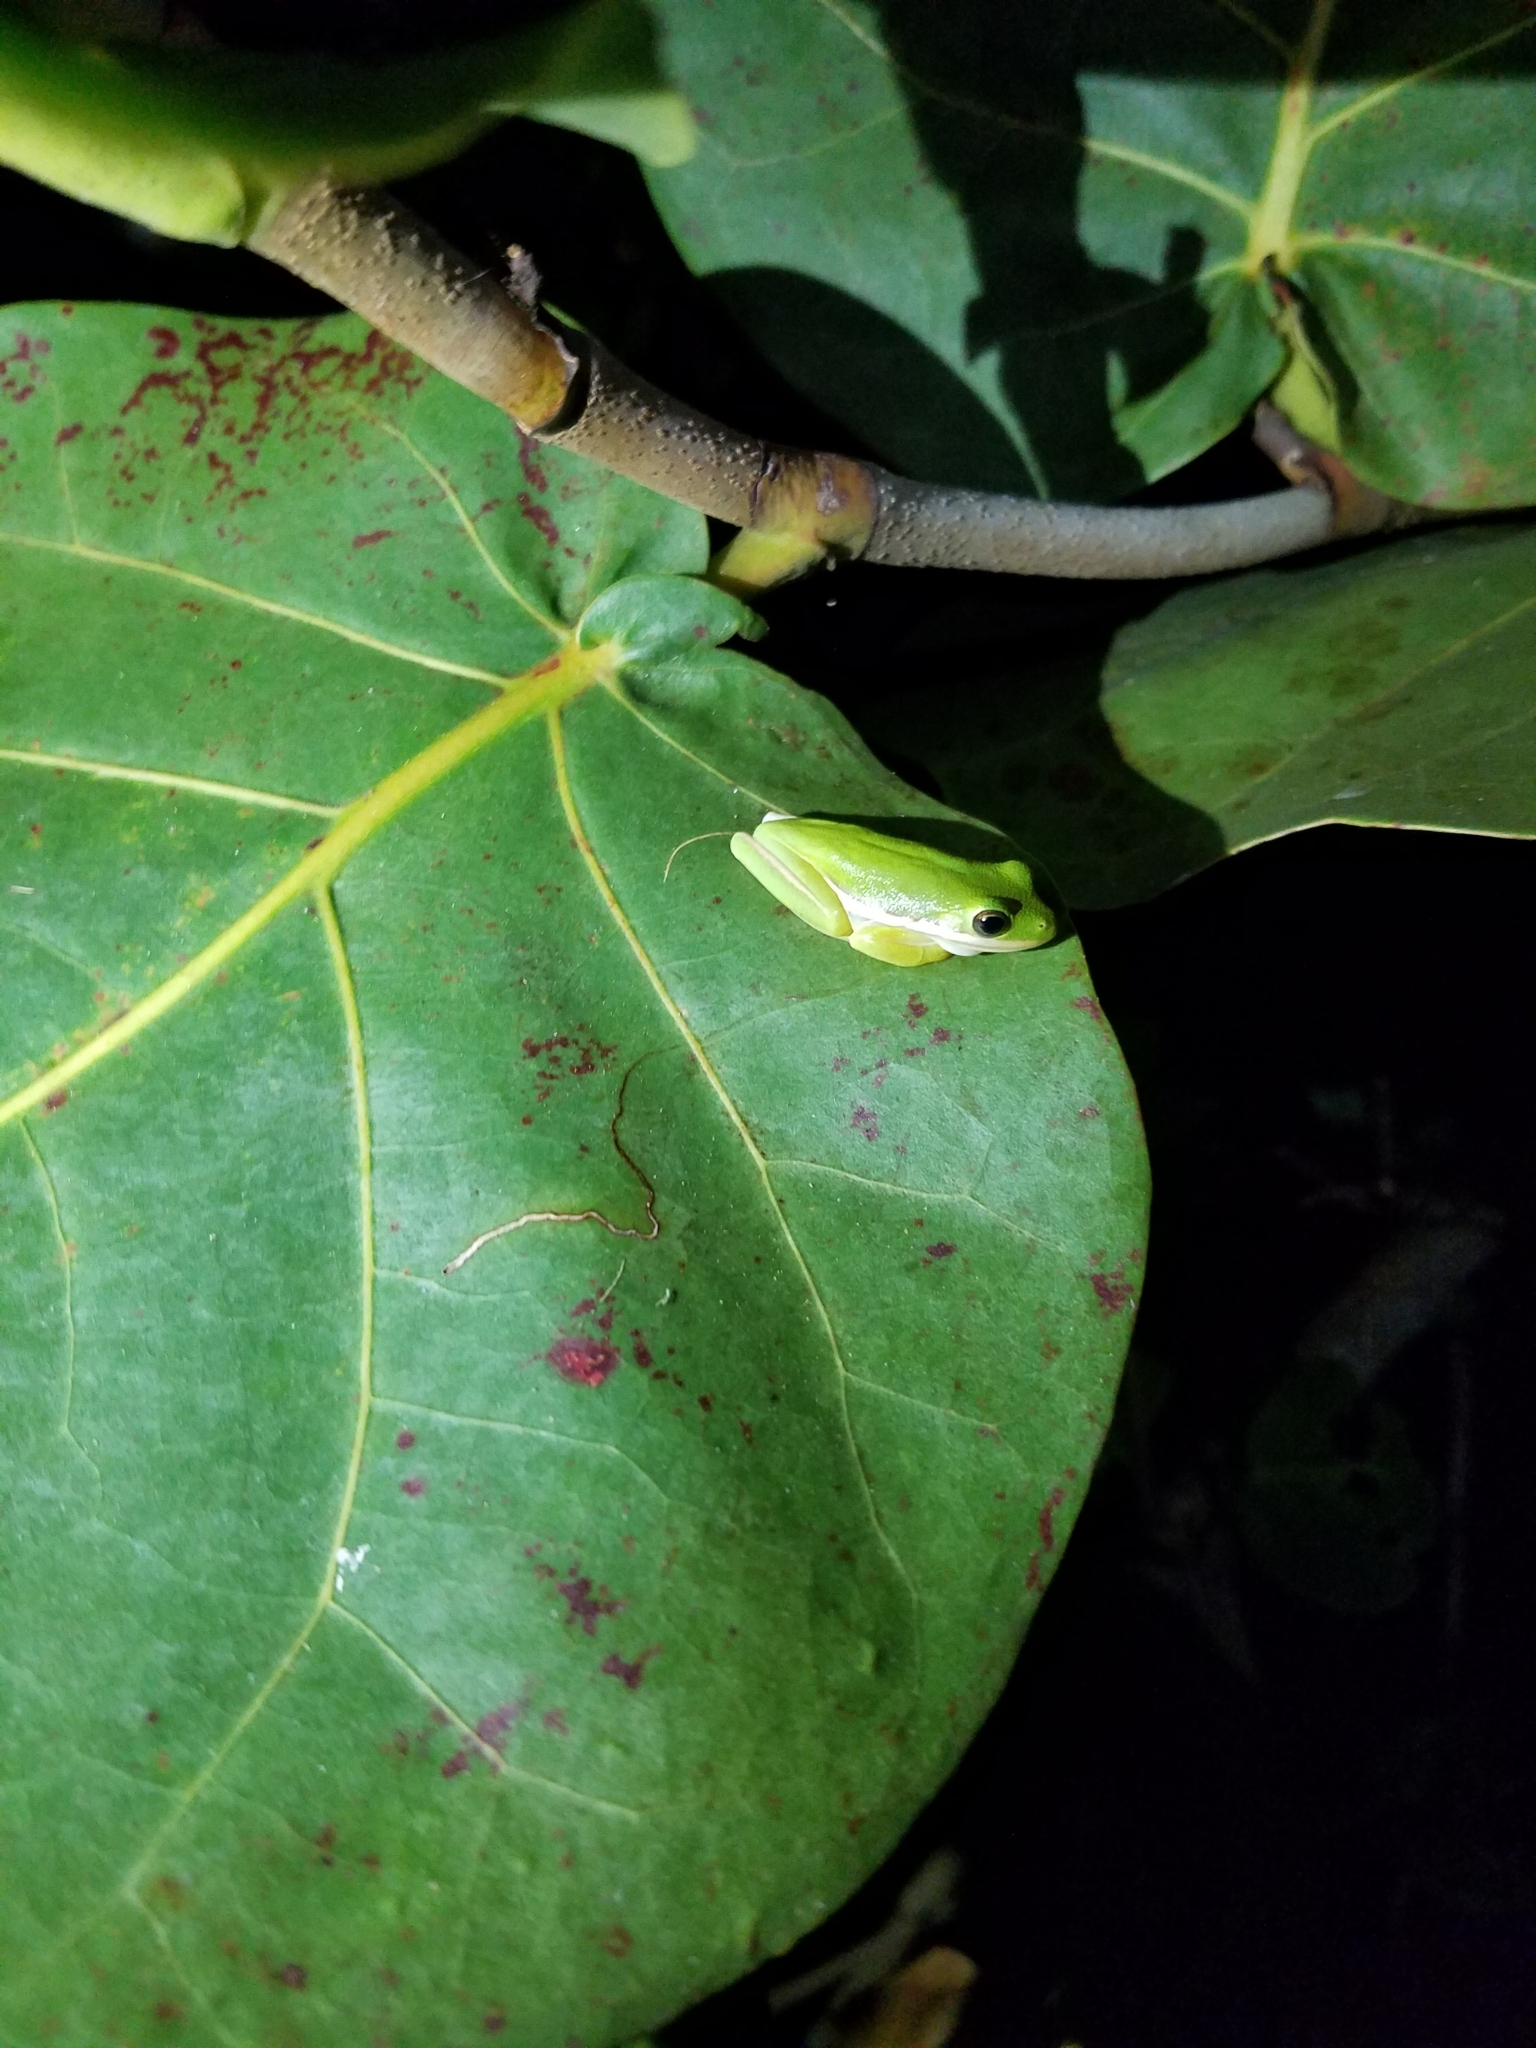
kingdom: Animalia
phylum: Chordata
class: Amphibia
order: Anura
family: Hylidae
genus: Dryophytes
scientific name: Dryophytes cinereus
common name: Green treefrog
